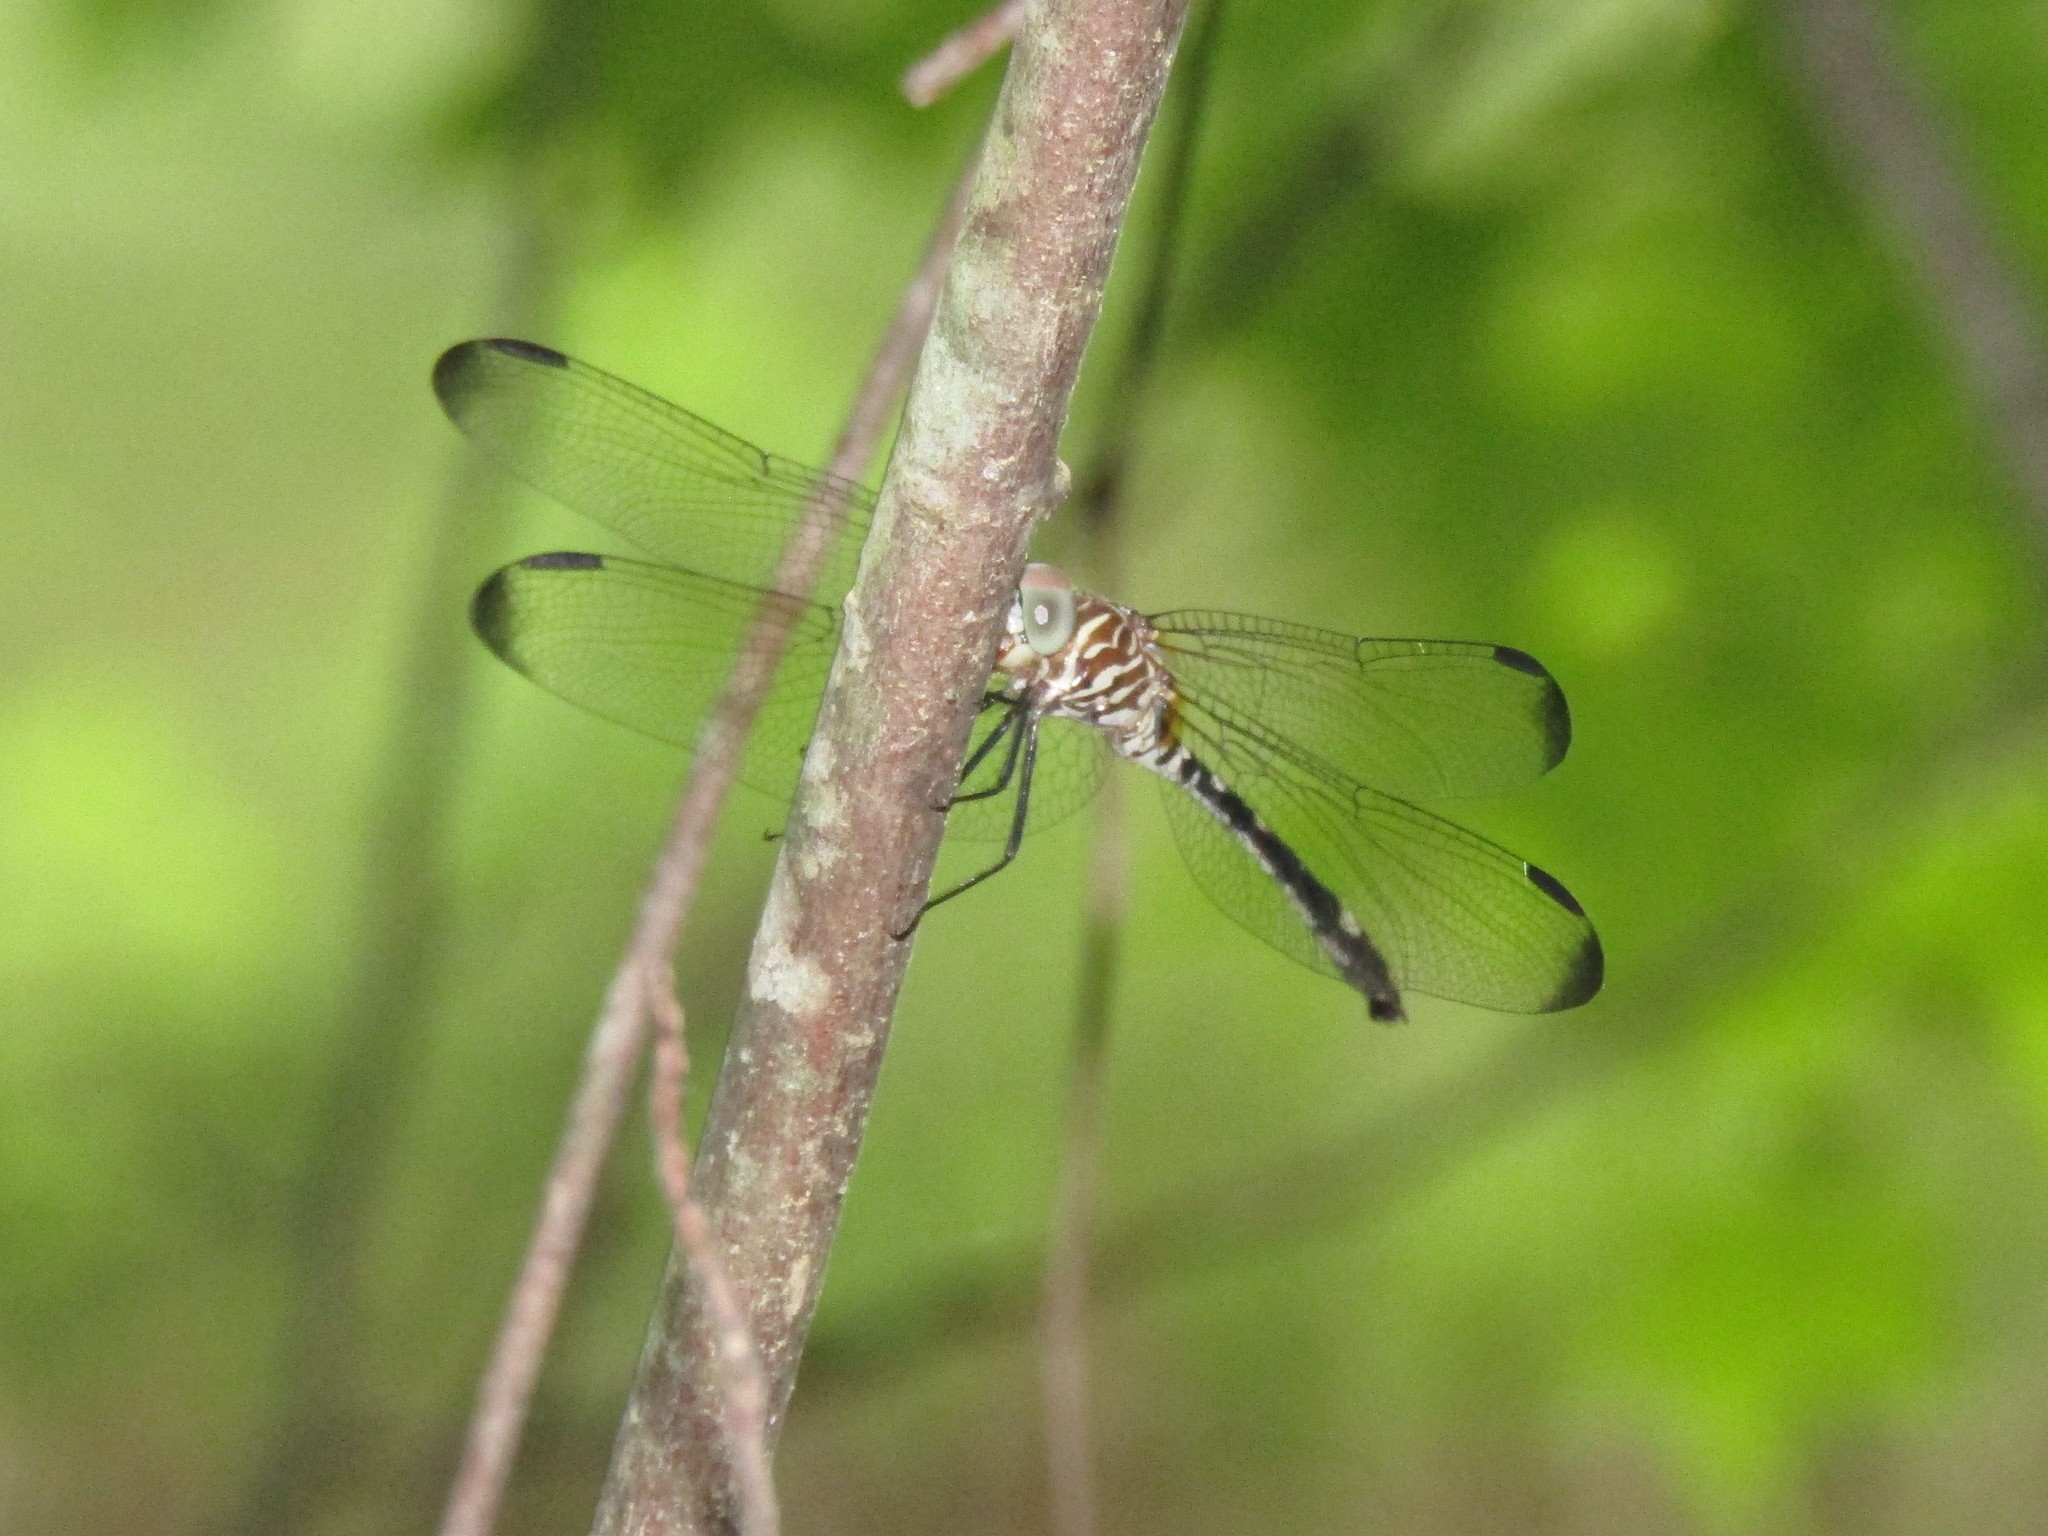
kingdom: Animalia
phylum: Arthropoda
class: Insecta
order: Odonata
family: Libellulidae
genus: Dythemis
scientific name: Dythemis velox
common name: Swift setwing
